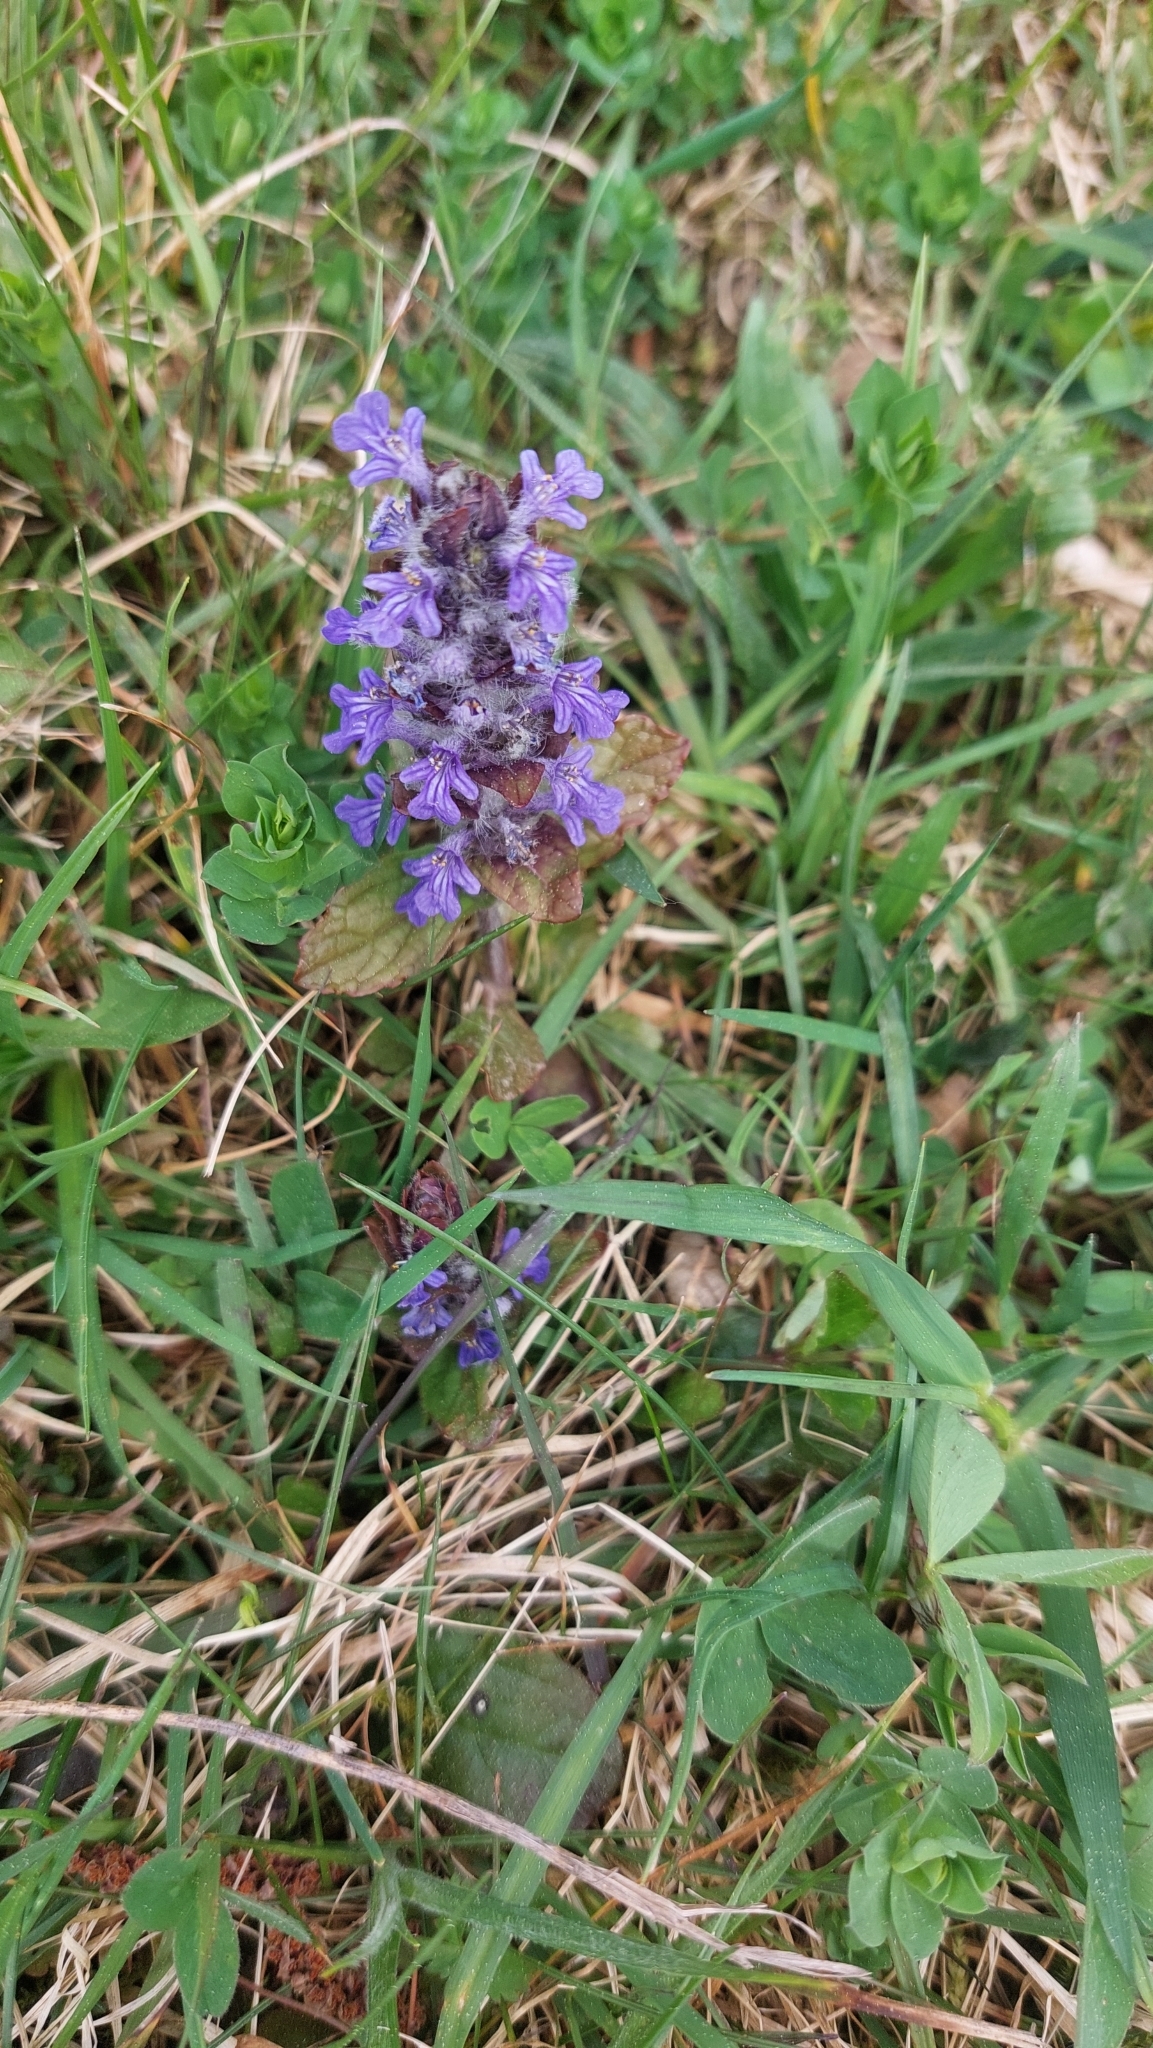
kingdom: Plantae
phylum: Tracheophyta
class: Magnoliopsida
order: Lamiales
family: Lamiaceae
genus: Ajuga
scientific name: Ajuga reptans
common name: Bugle
